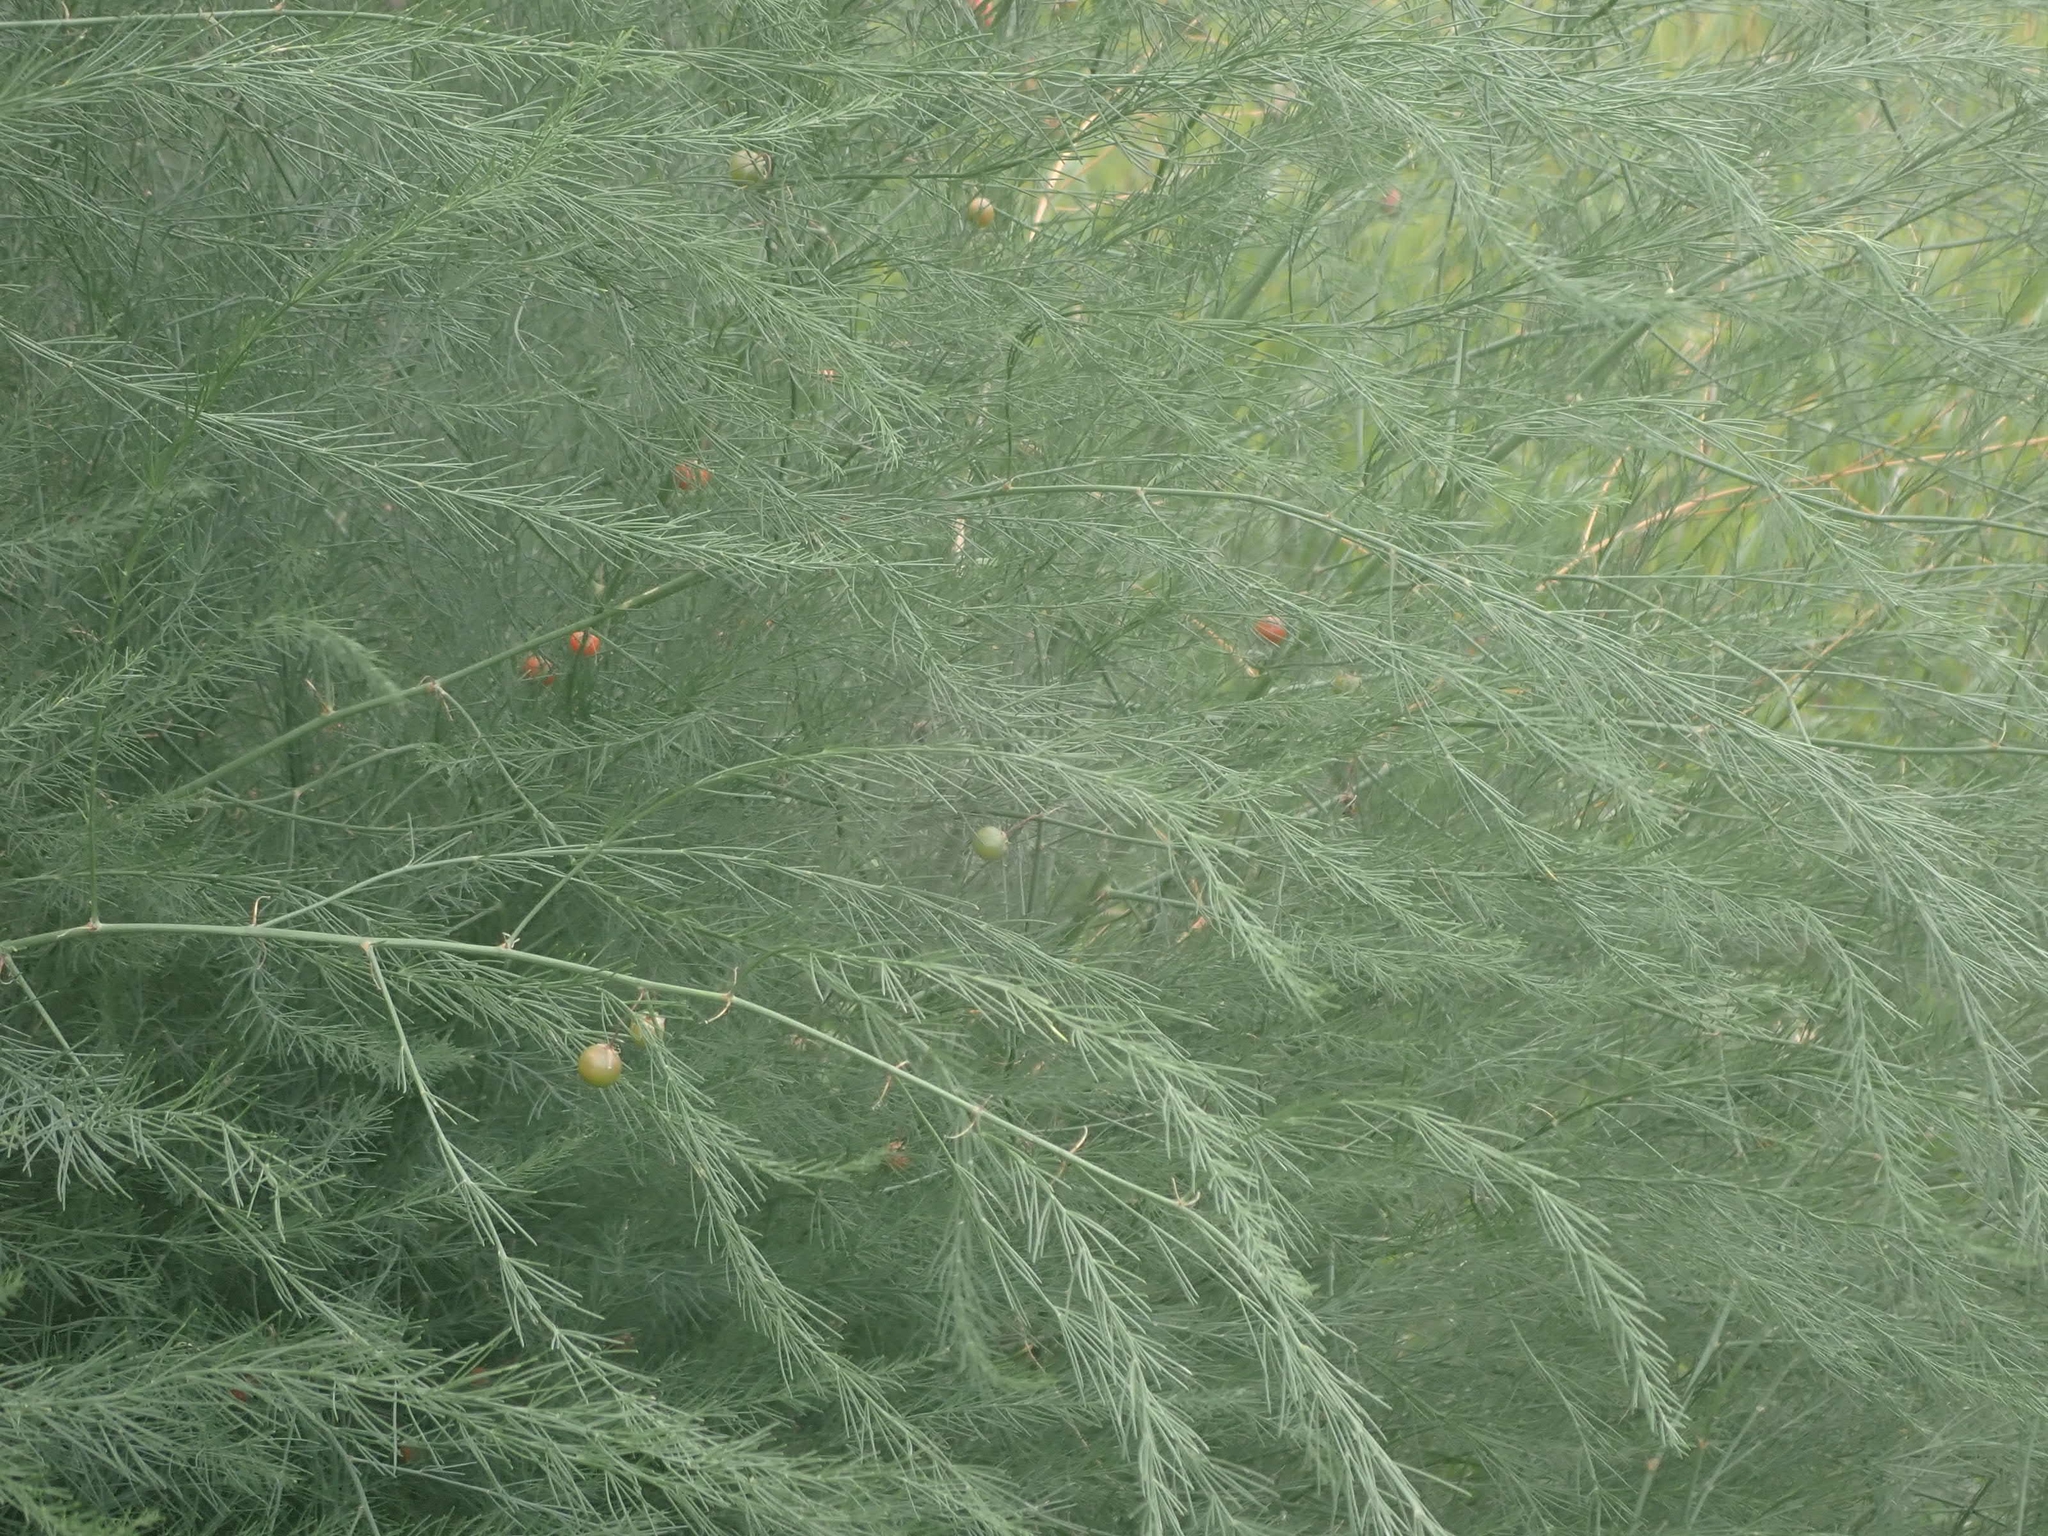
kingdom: Plantae
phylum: Tracheophyta
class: Liliopsida
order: Asparagales
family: Asparagaceae
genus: Asparagus
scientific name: Asparagus officinalis
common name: Garden asparagus
